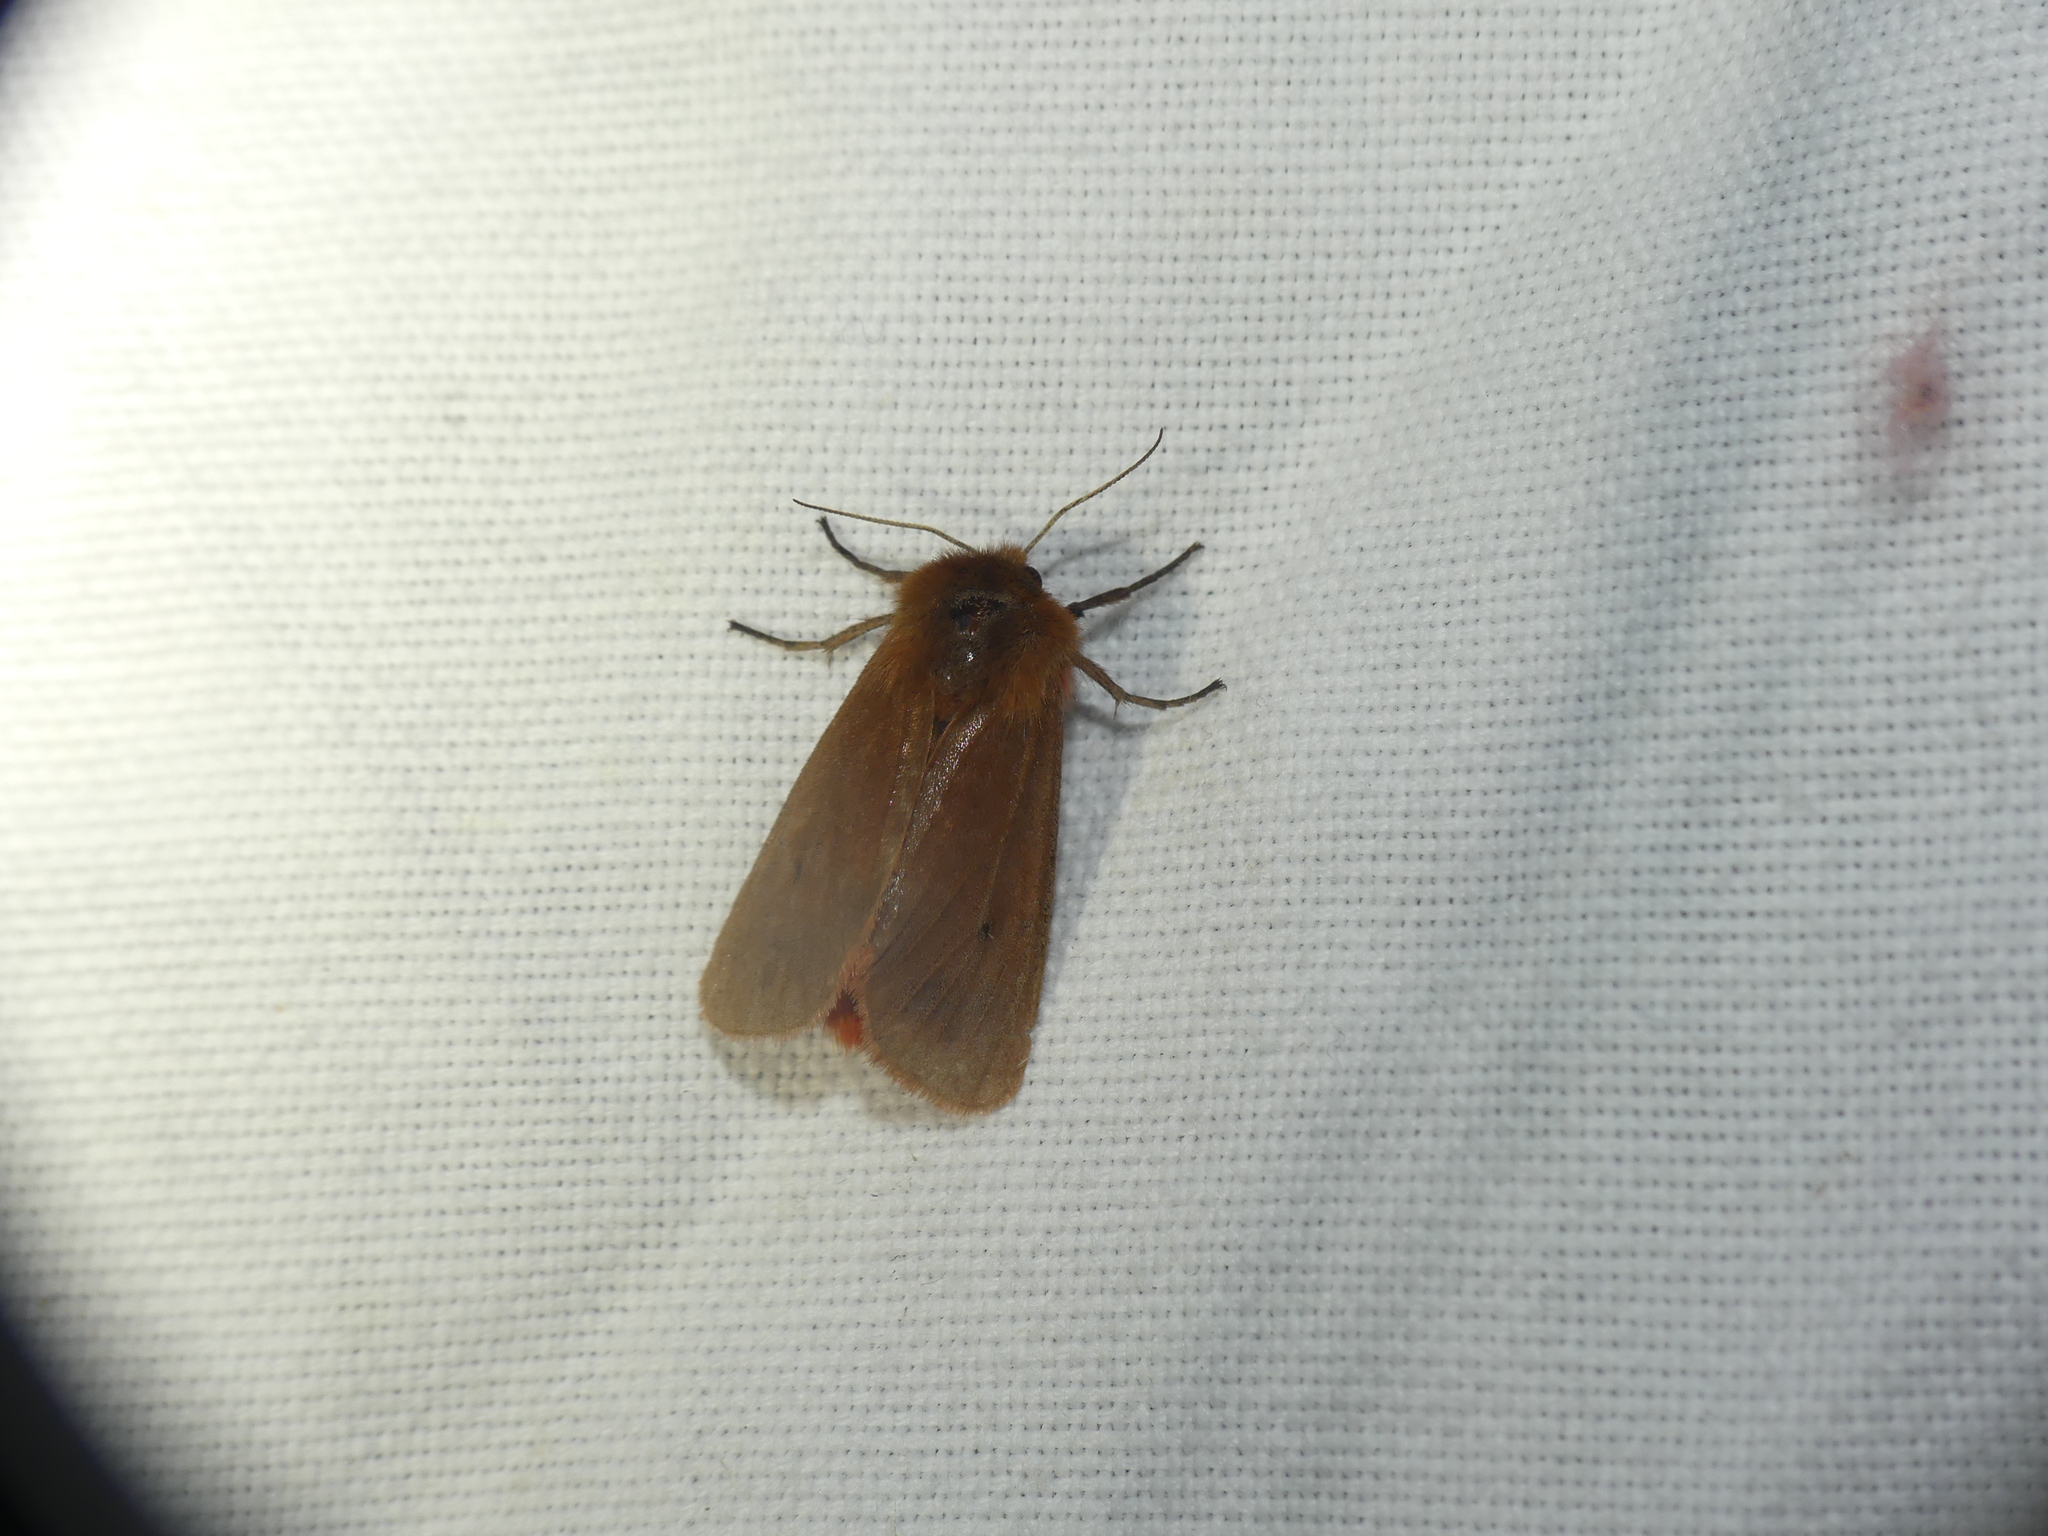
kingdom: Animalia
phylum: Arthropoda
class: Insecta
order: Lepidoptera
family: Erebidae
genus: Phragmatobia
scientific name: Phragmatobia fuliginosa
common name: Ruby tiger
